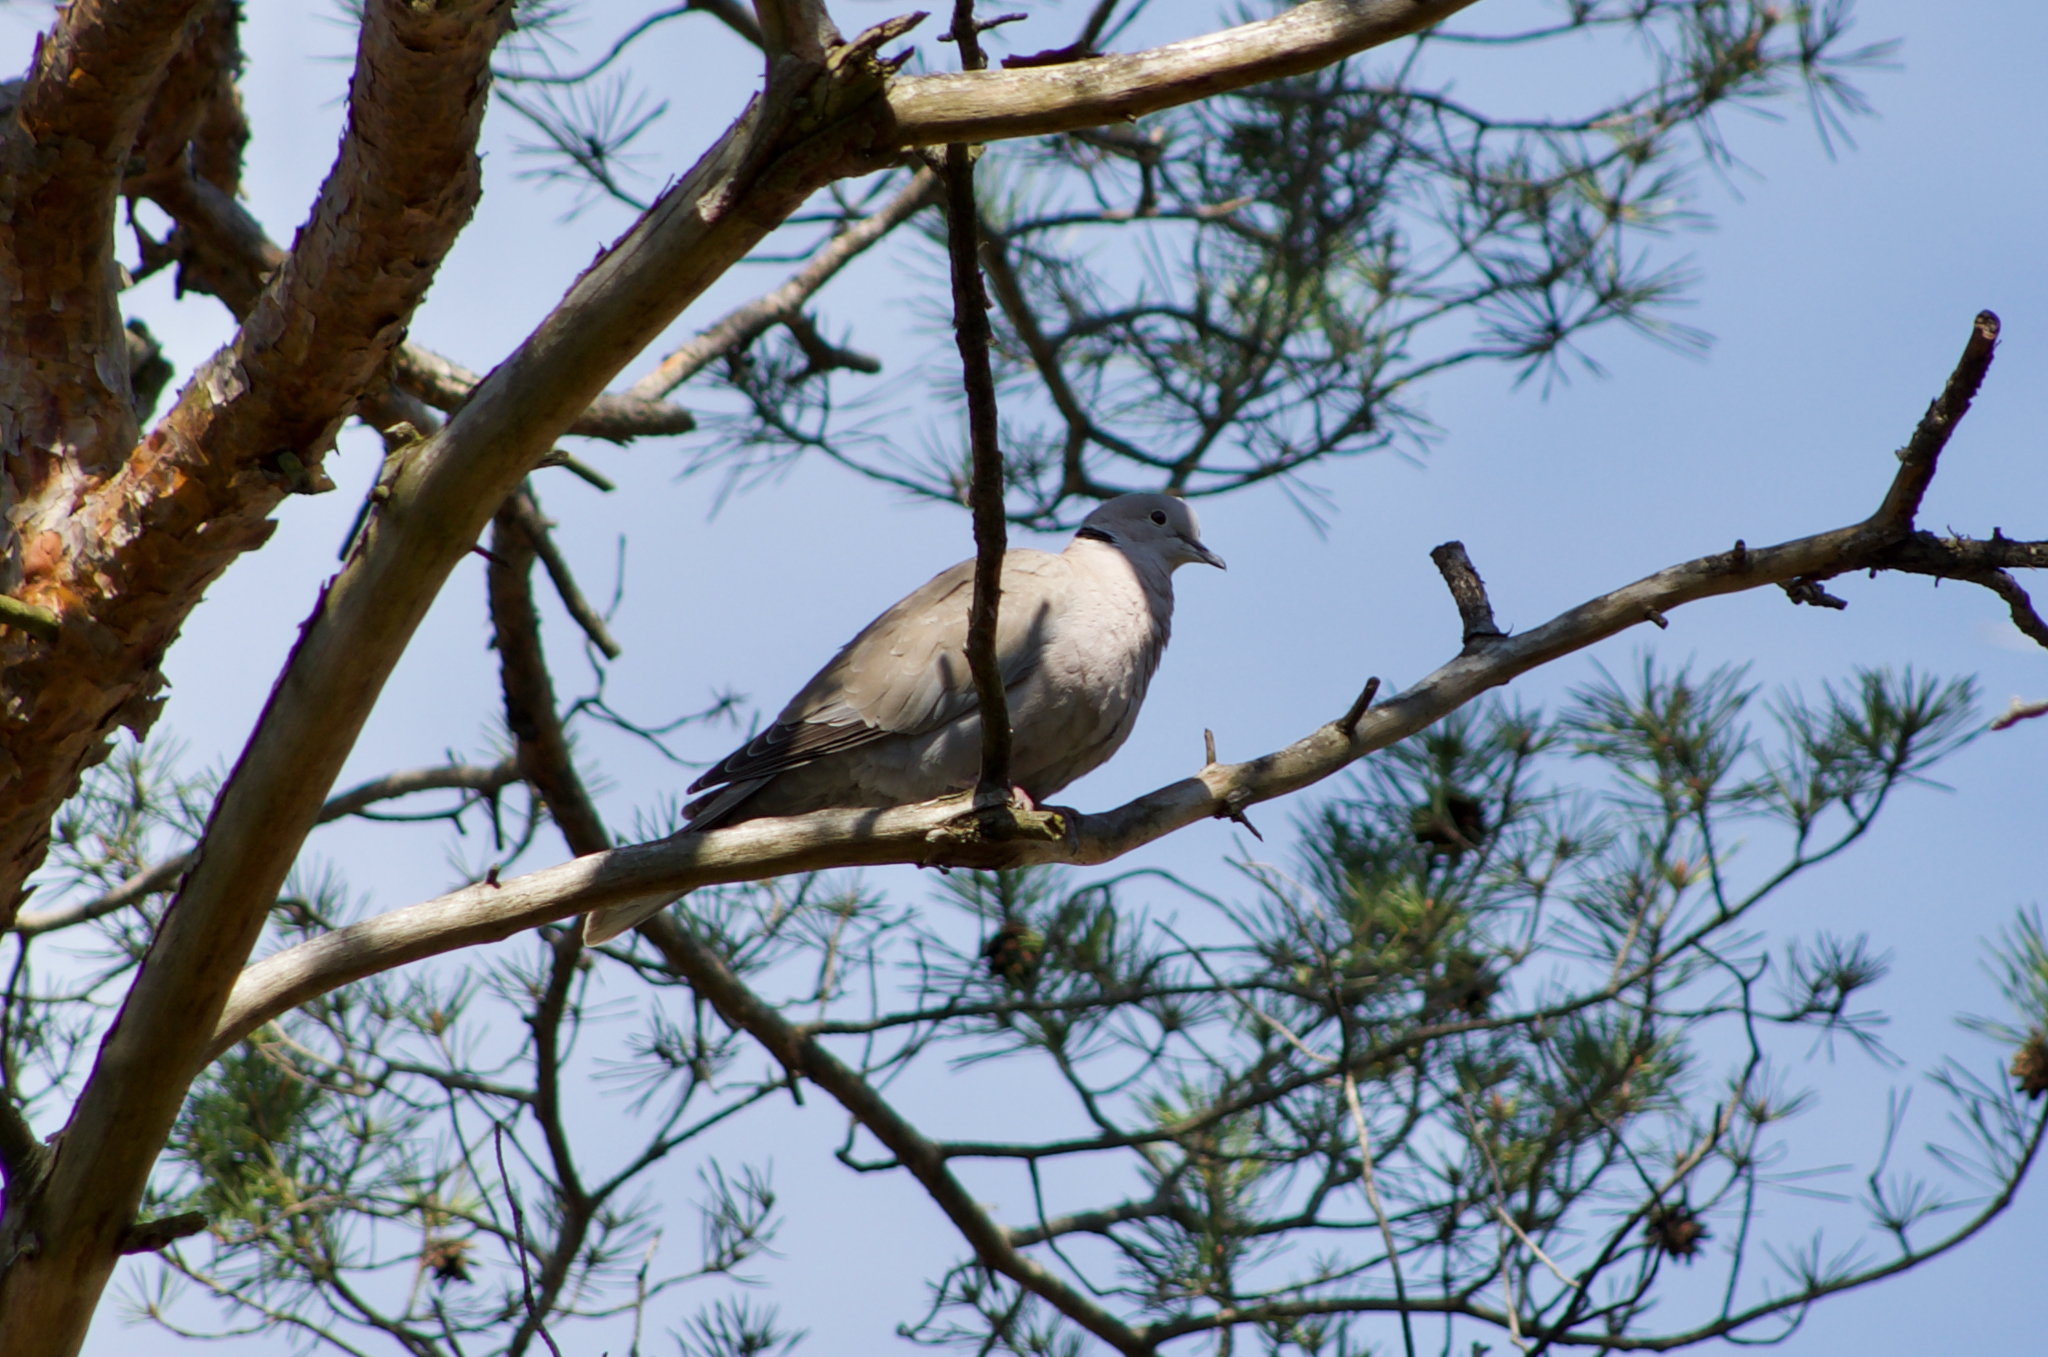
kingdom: Animalia
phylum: Chordata
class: Aves
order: Columbiformes
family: Columbidae
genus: Streptopelia
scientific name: Streptopelia decaocto
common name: Eurasian collared dove
